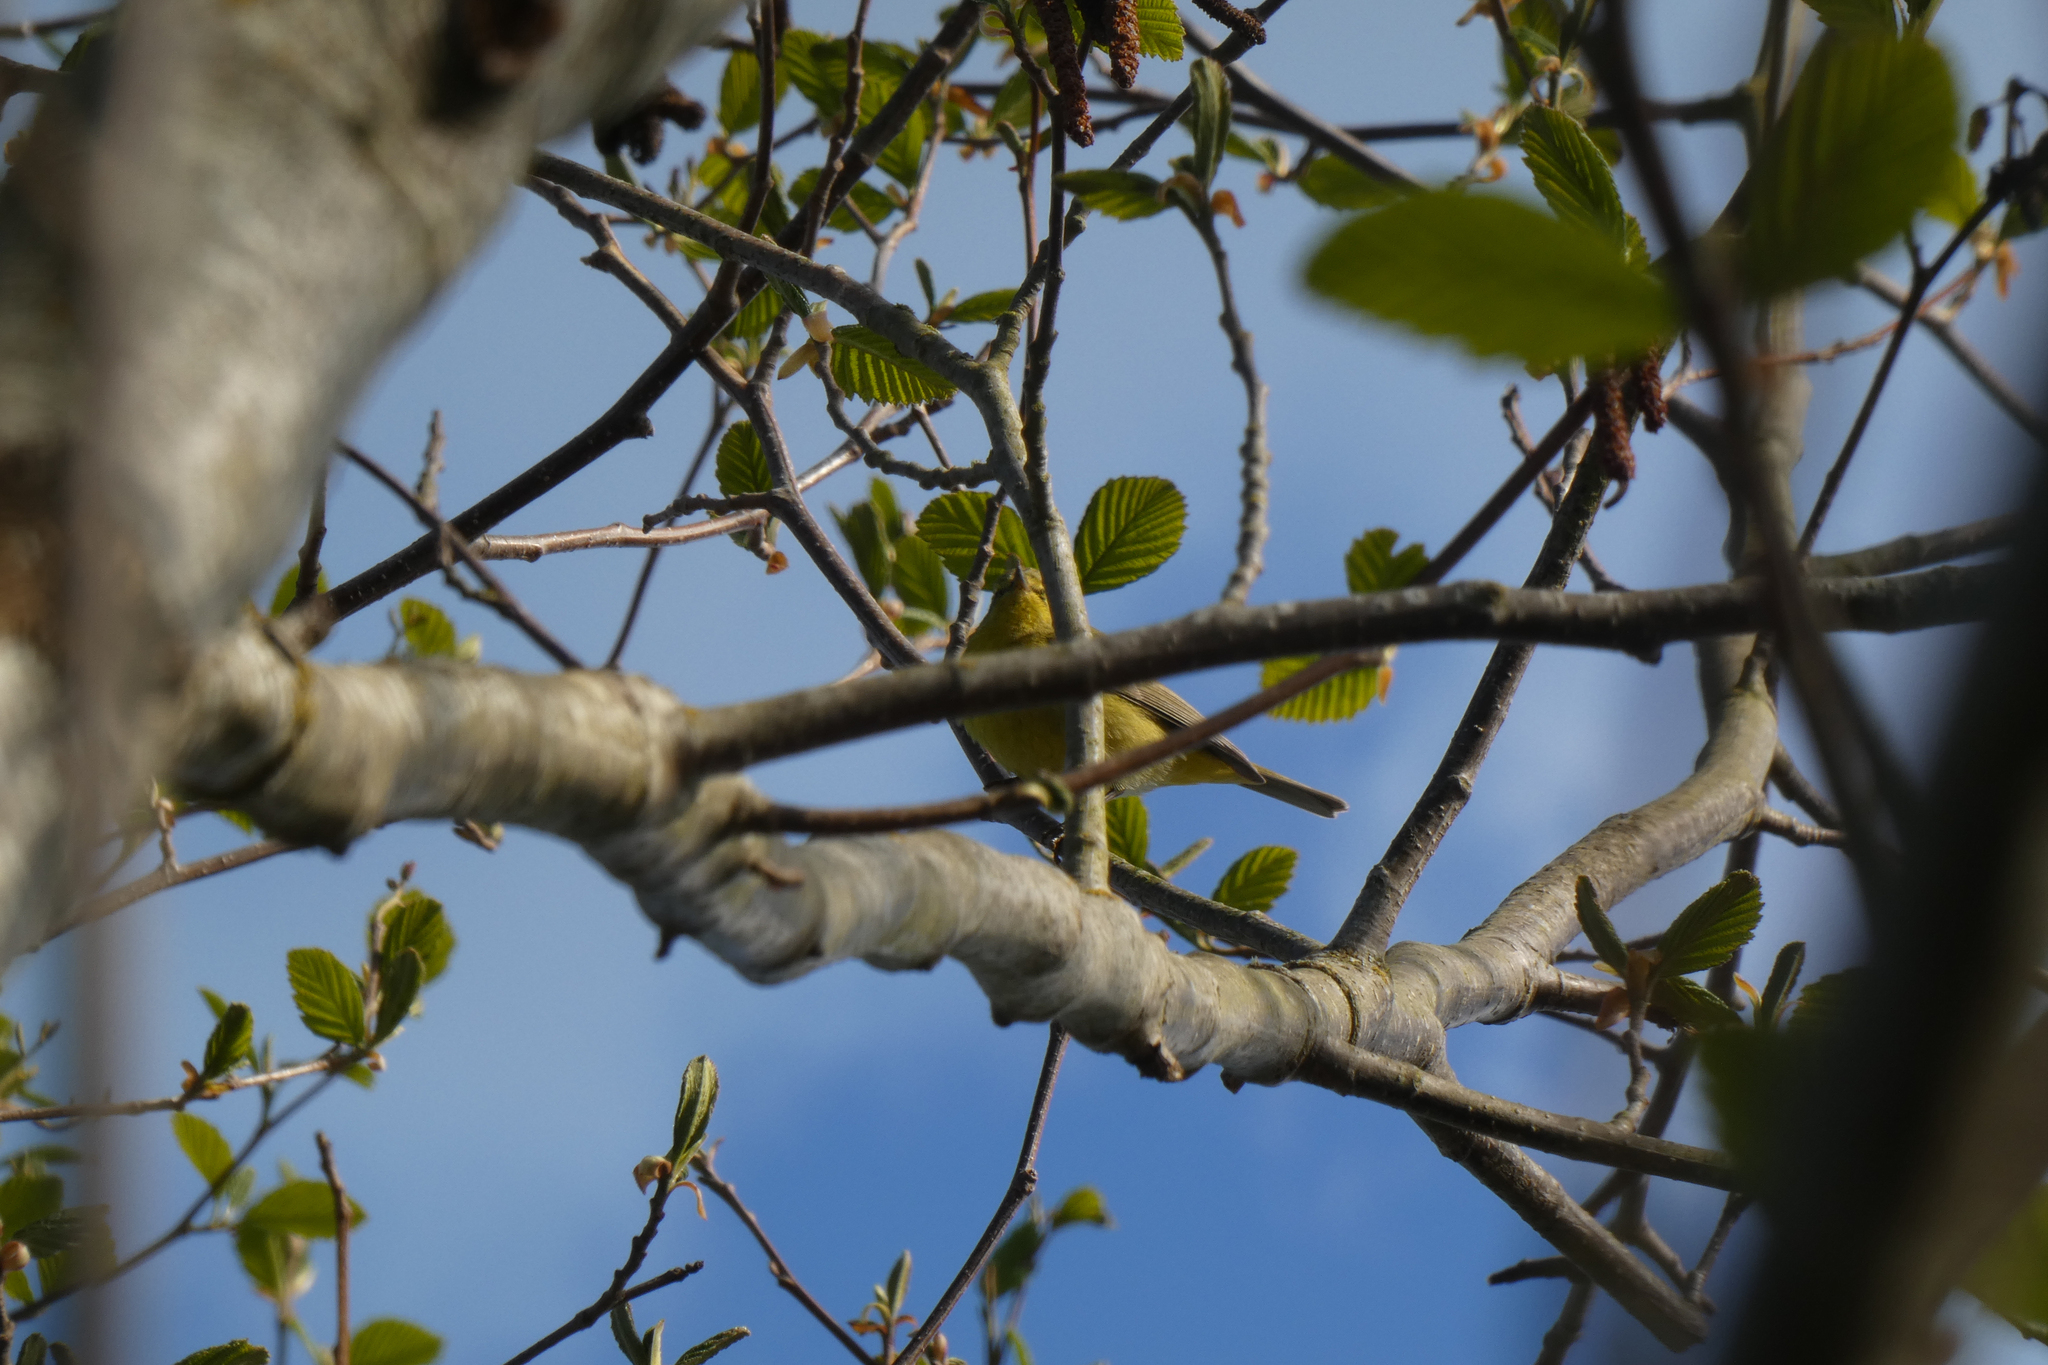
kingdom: Animalia
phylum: Chordata
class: Aves
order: Passeriformes
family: Parulidae
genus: Leiothlypis
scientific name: Leiothlypis celata
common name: Orange-crowned warbler
